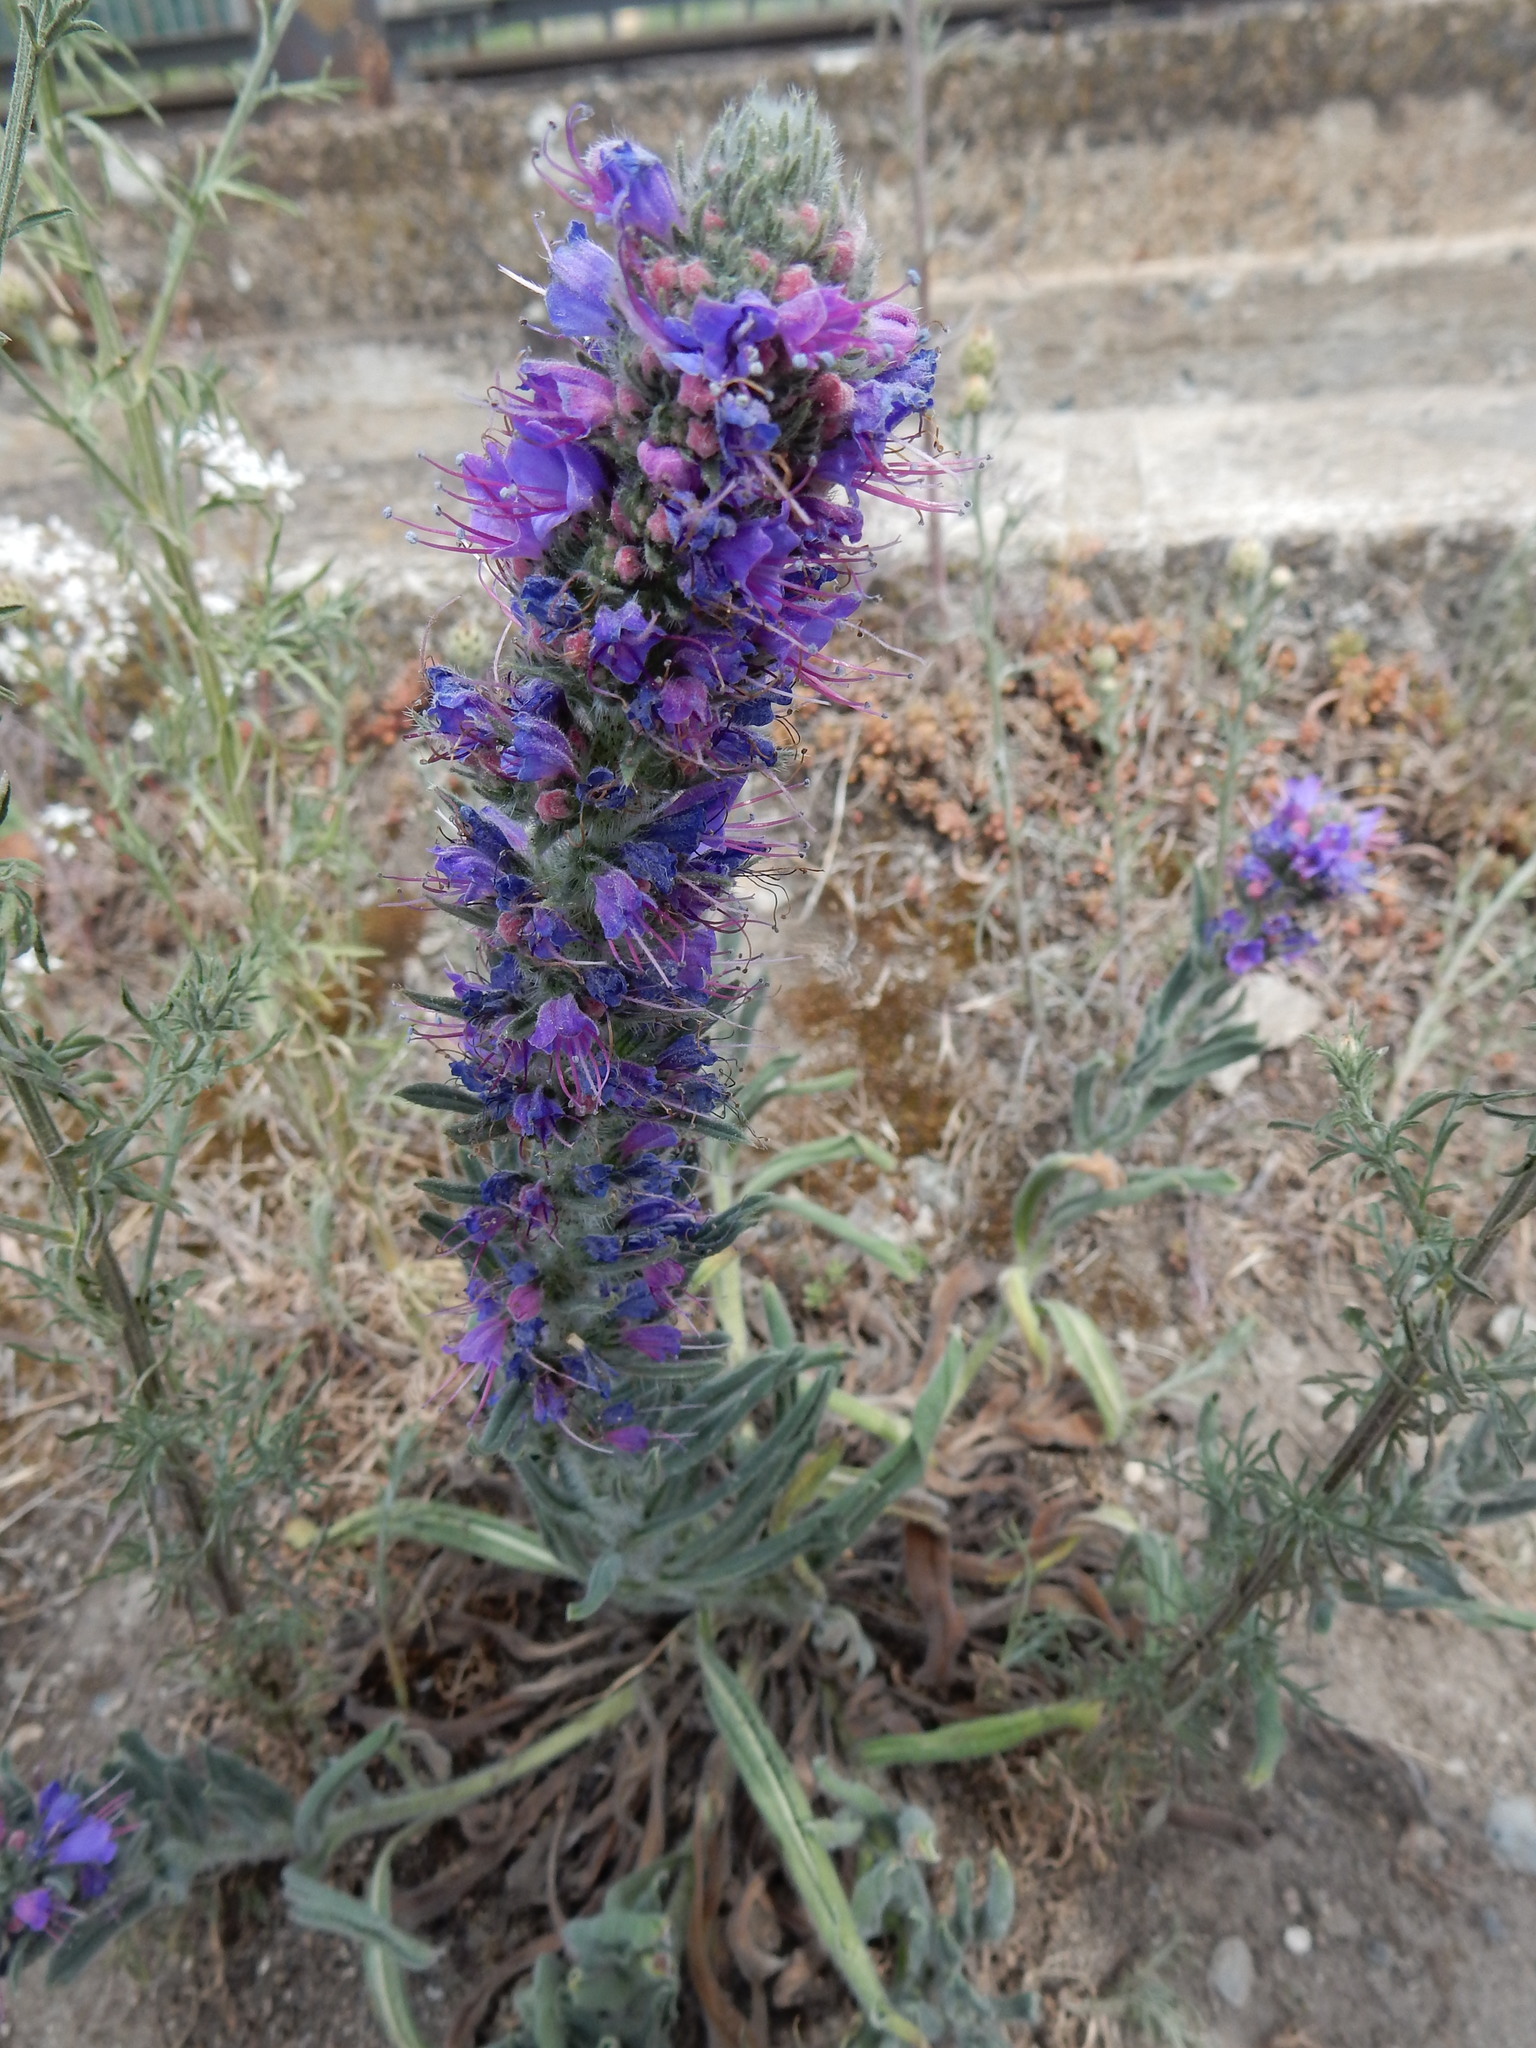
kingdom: Plantae
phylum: Tracheophyta
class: Magnoliopsida
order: Boraginales
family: Boraginaceae
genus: Echium
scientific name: Echium vulgare
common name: Common viper's bugloss
